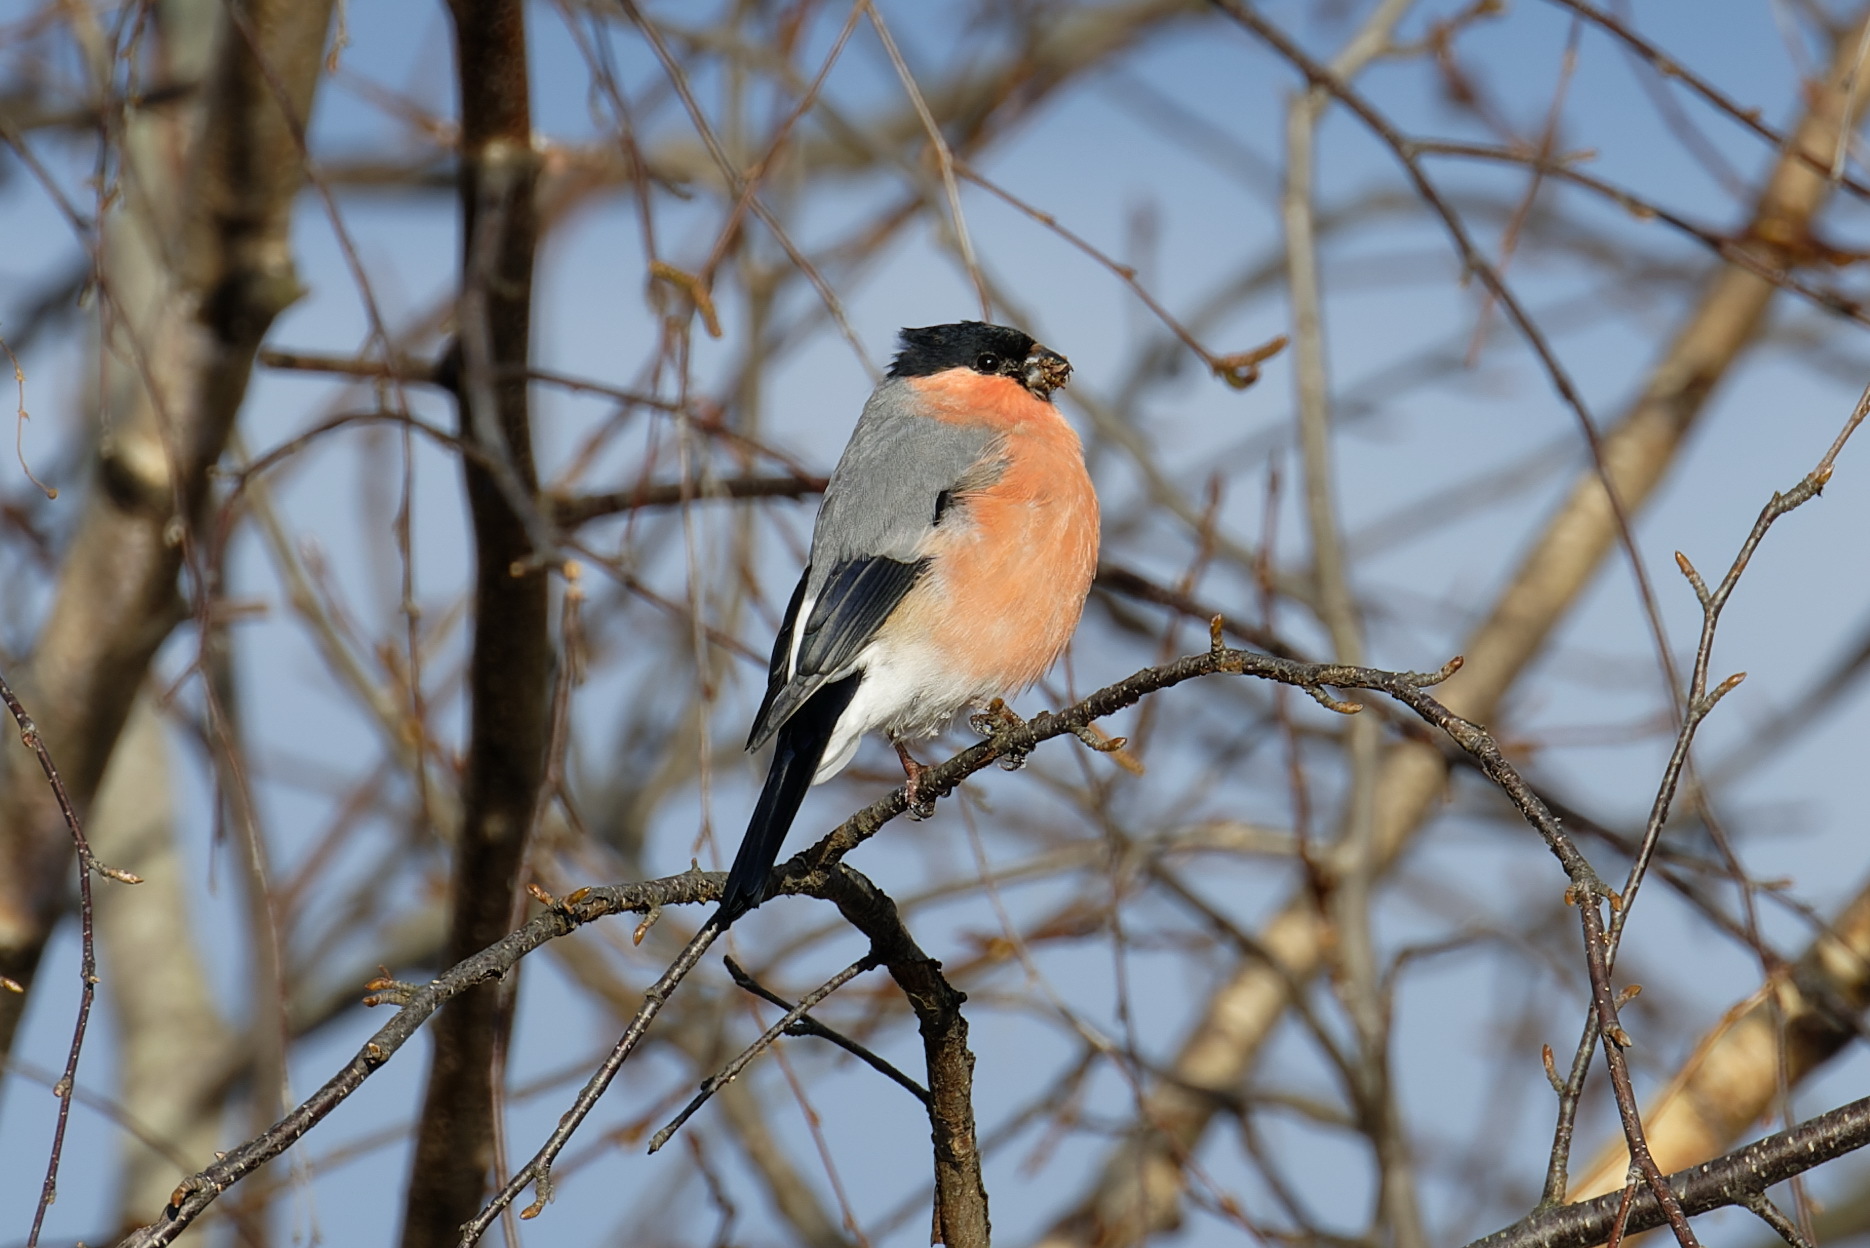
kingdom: Animalia
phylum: Chordata
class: Aves
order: Passeriformes
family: Fringillidae
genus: Pyrrhula
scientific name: Pyrrhula pyrrhula
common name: Eurasian bullfinch
